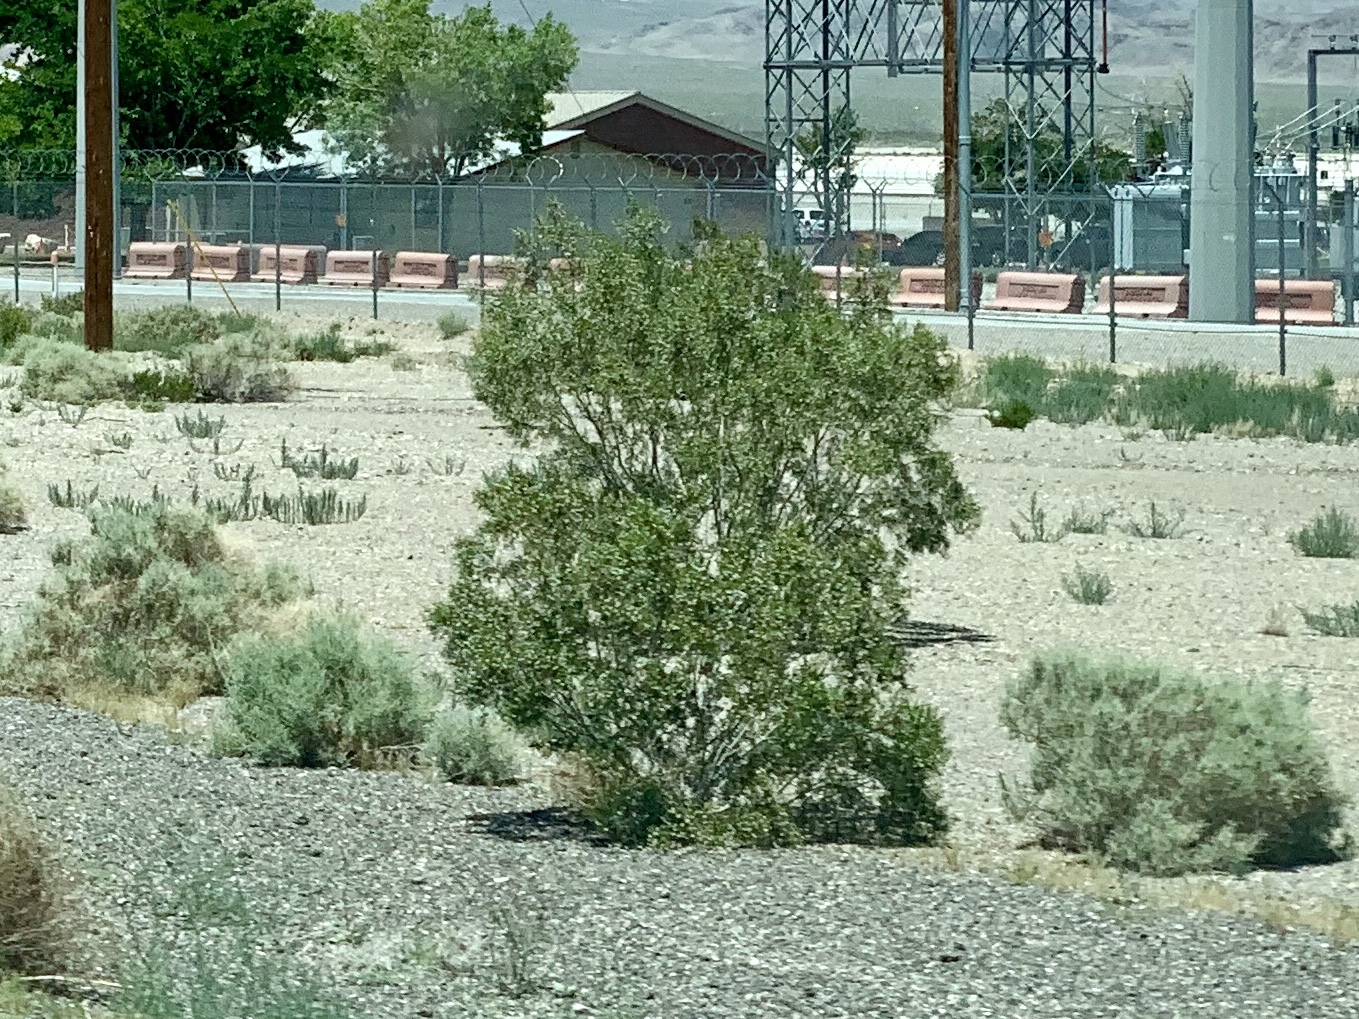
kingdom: Plantae
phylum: Tracheophyta
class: Magnoliopsida
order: Zygophyllales
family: Zygophyllaceae
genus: Larrea
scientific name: Larrea tridentata
